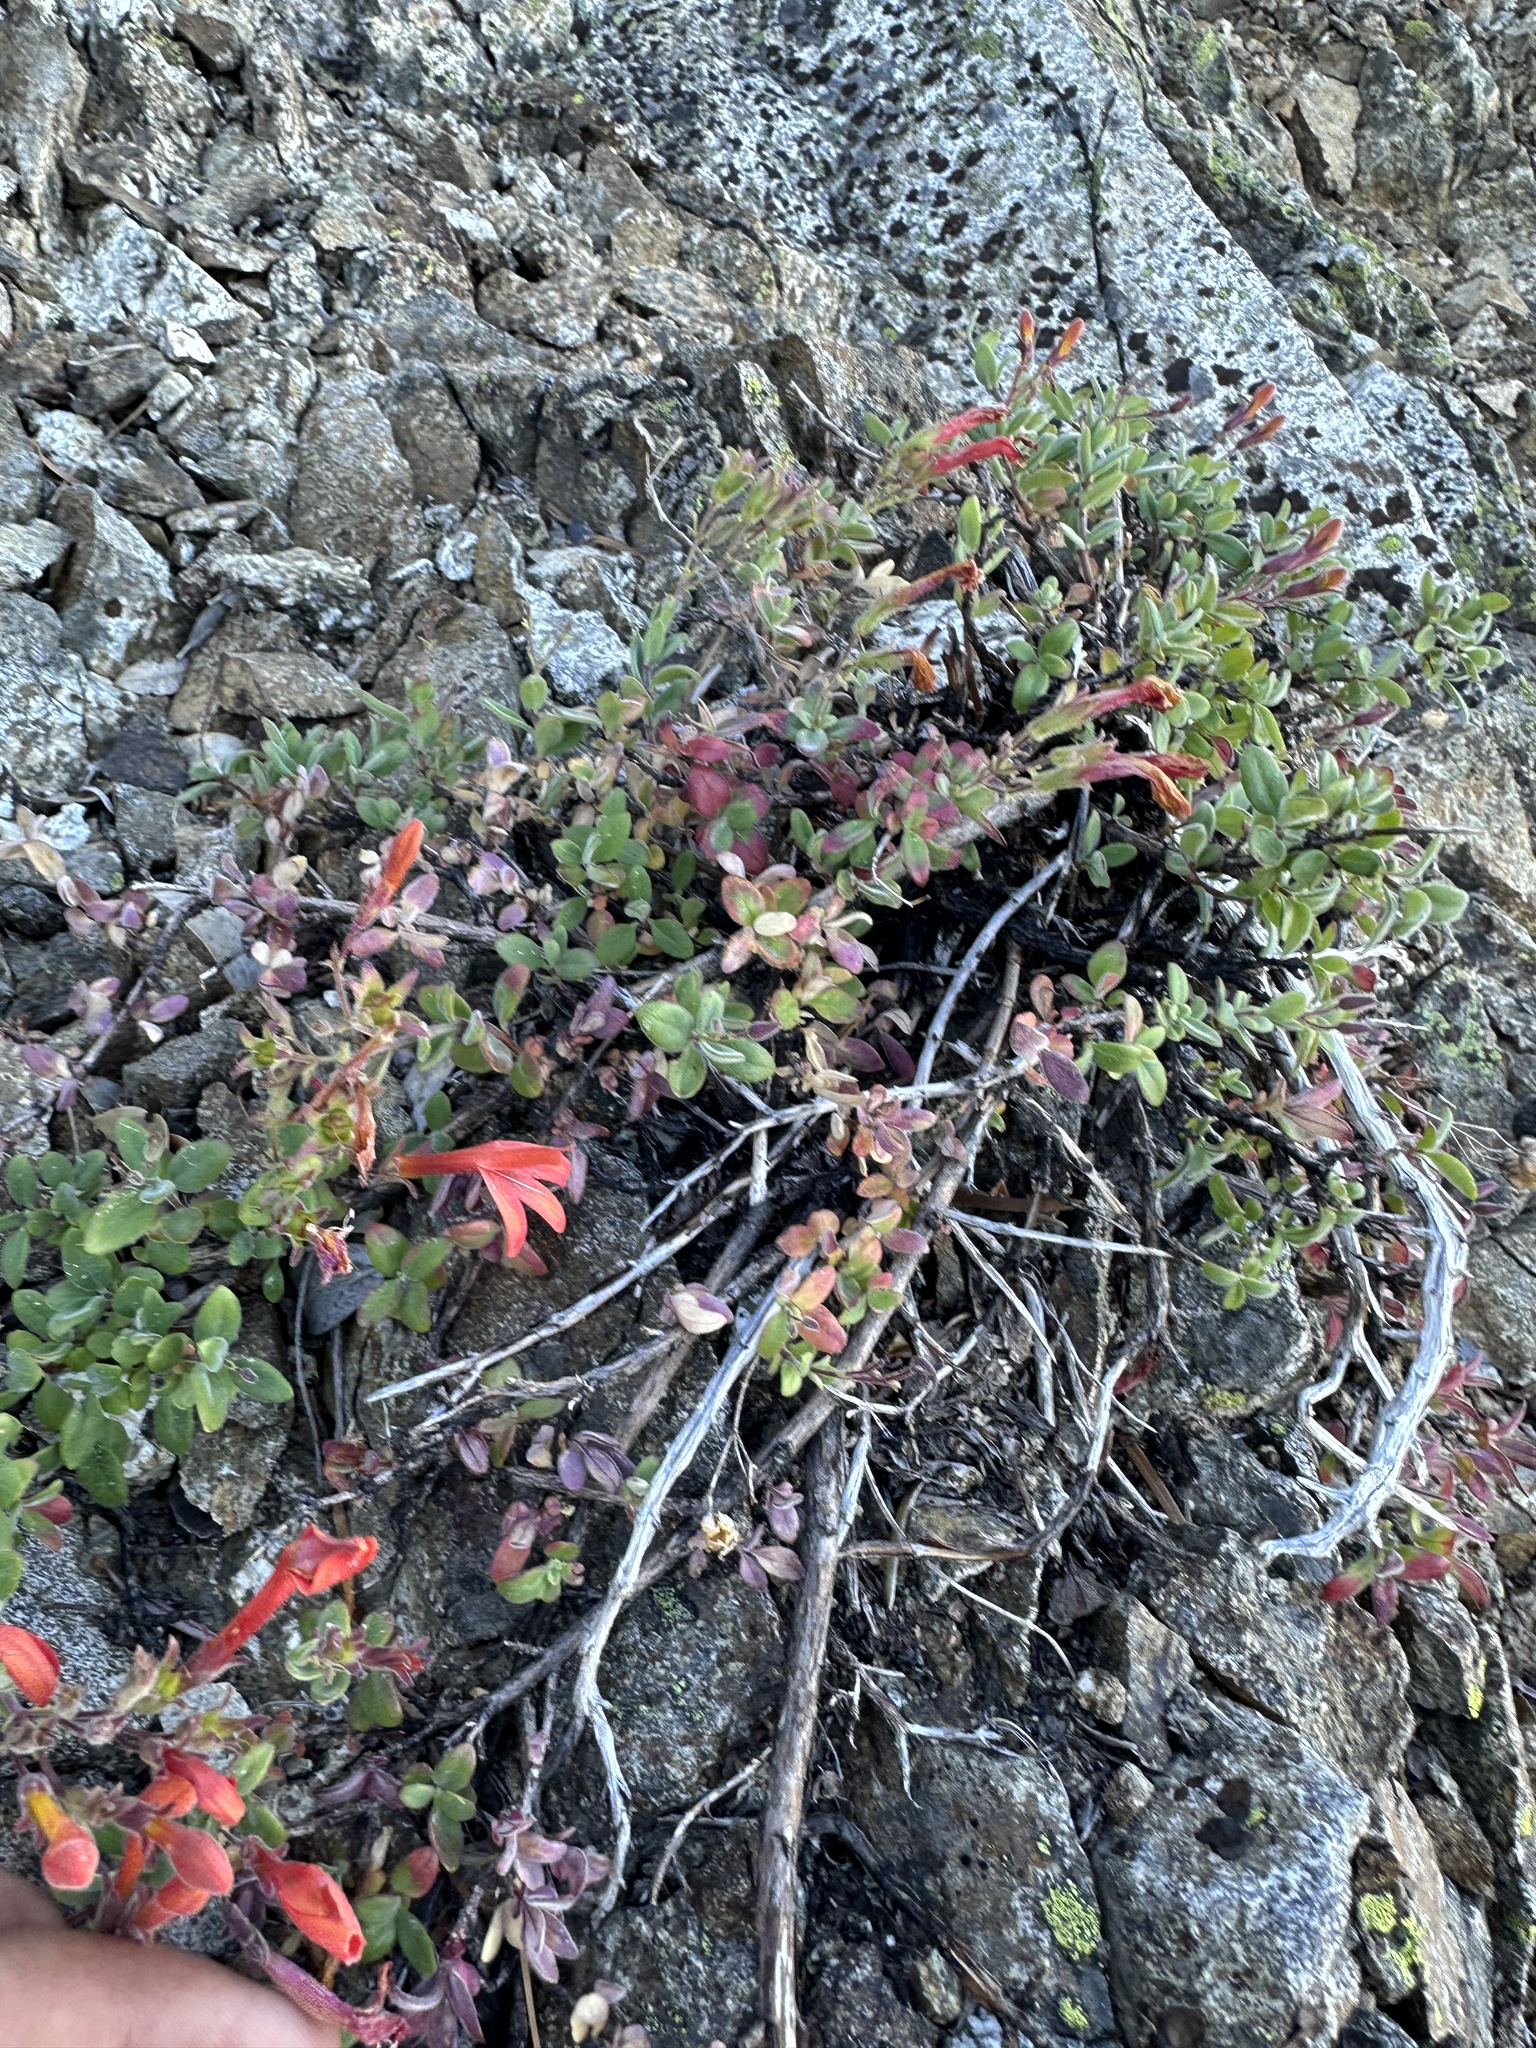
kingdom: Plantae
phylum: Tracheophyta
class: Magnoliopsida
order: Lamiales
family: Plantaginaceae
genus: Keckiella
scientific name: Keckiella corymbosa
